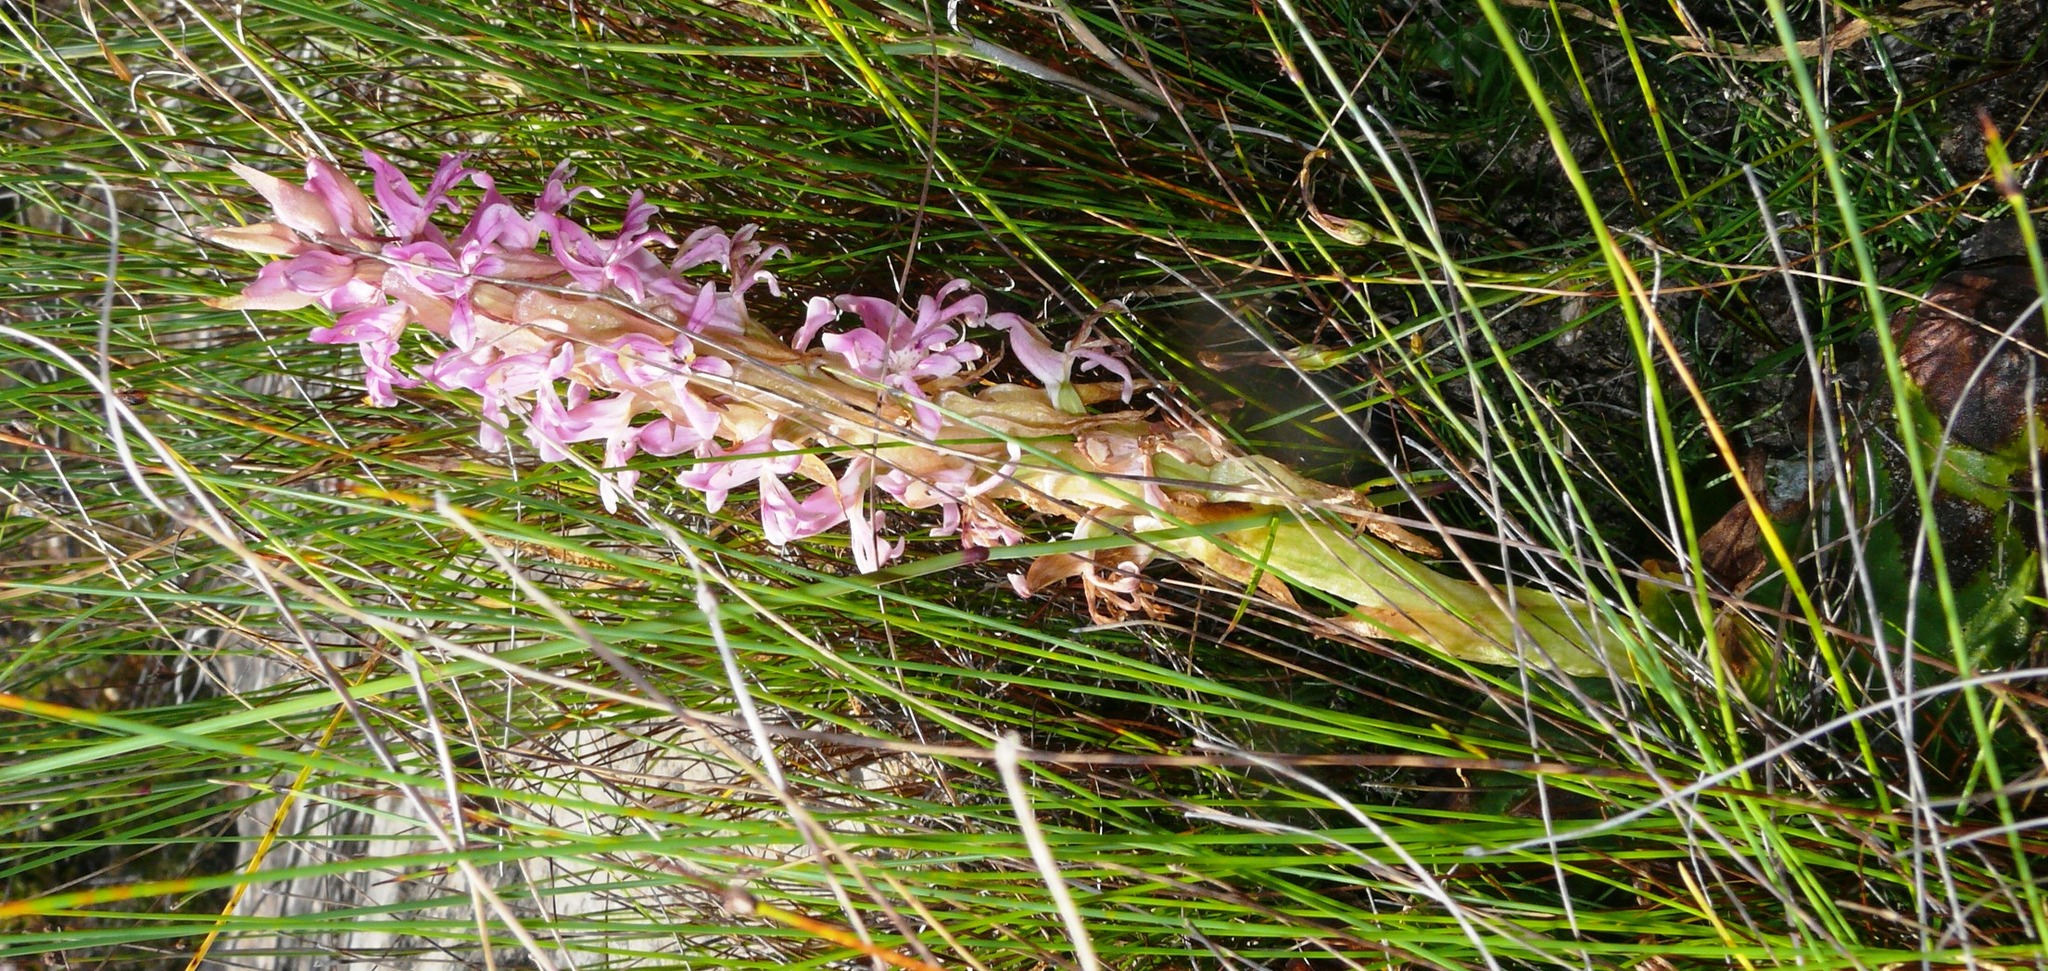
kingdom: Plantae
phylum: Tracheophyta
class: Liliopsida
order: Asparagales
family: Orchidaceae
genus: Satyrium
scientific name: Satyrium erectum
